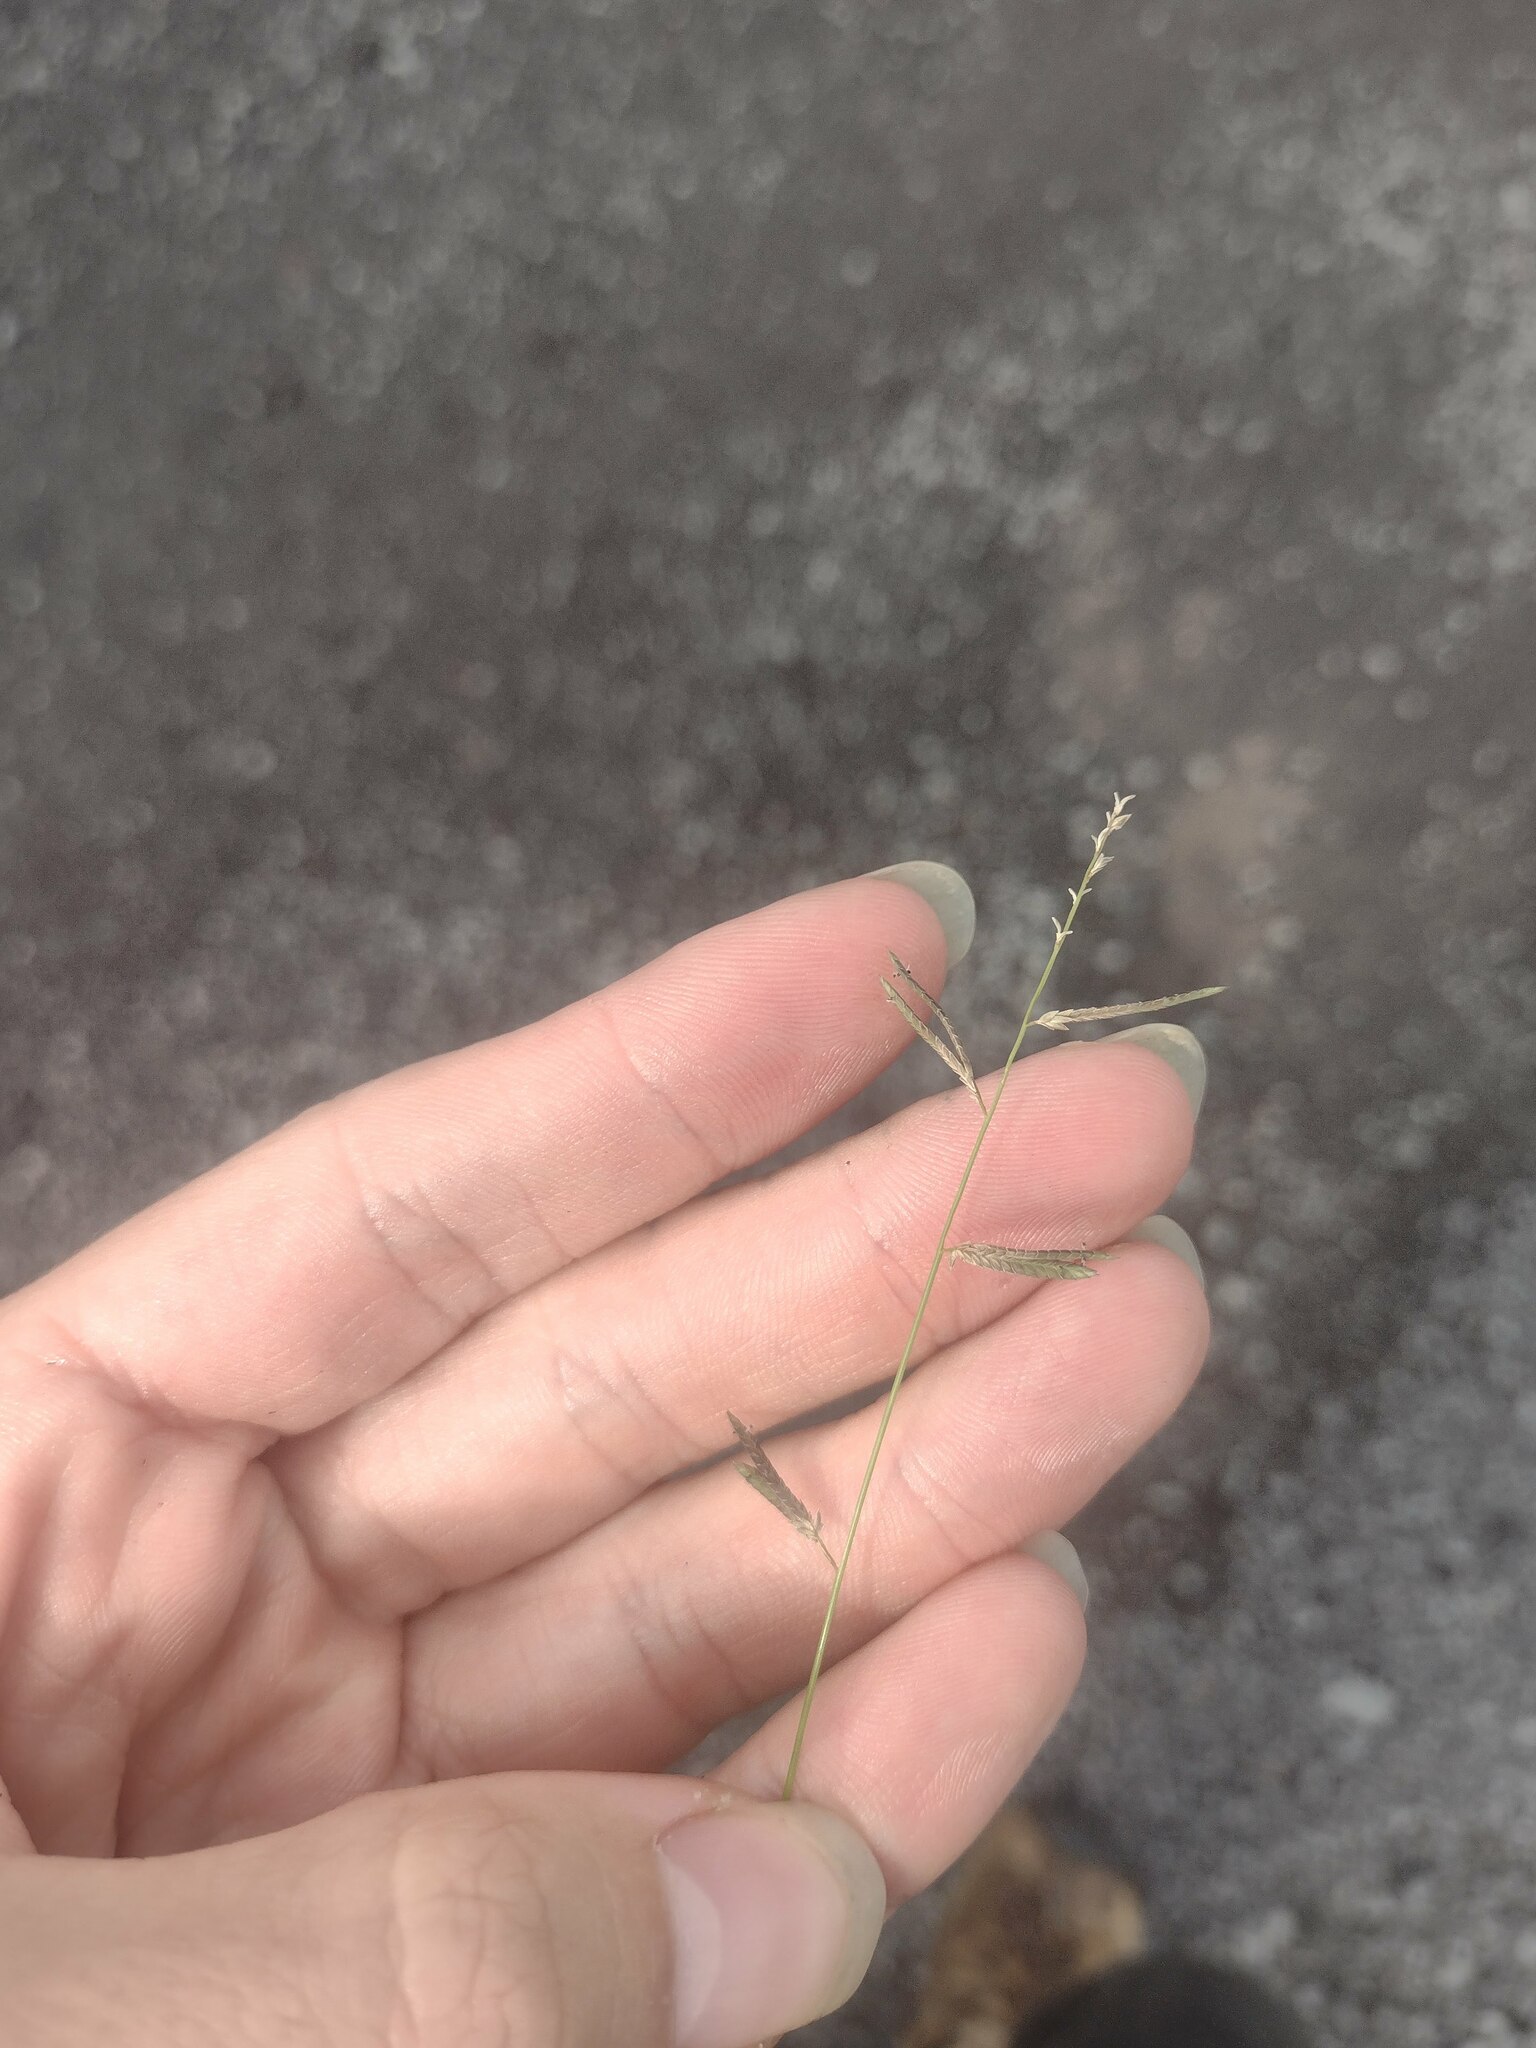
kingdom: Plantae
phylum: Tracheophyta
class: Liliopsida
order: Poales
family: Poaceae
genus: Eragrostis
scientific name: Eragrostis brownii
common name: Lovegrass
